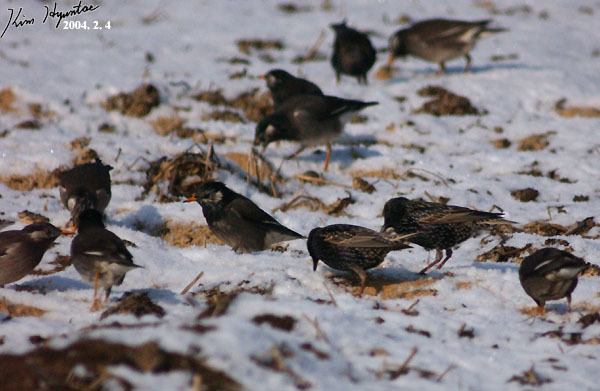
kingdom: Animalia
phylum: Chordata
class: Aves
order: Passeriformes
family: Sturnidae
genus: Sturnus
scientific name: Sturnus vulgaris
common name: Common starling
